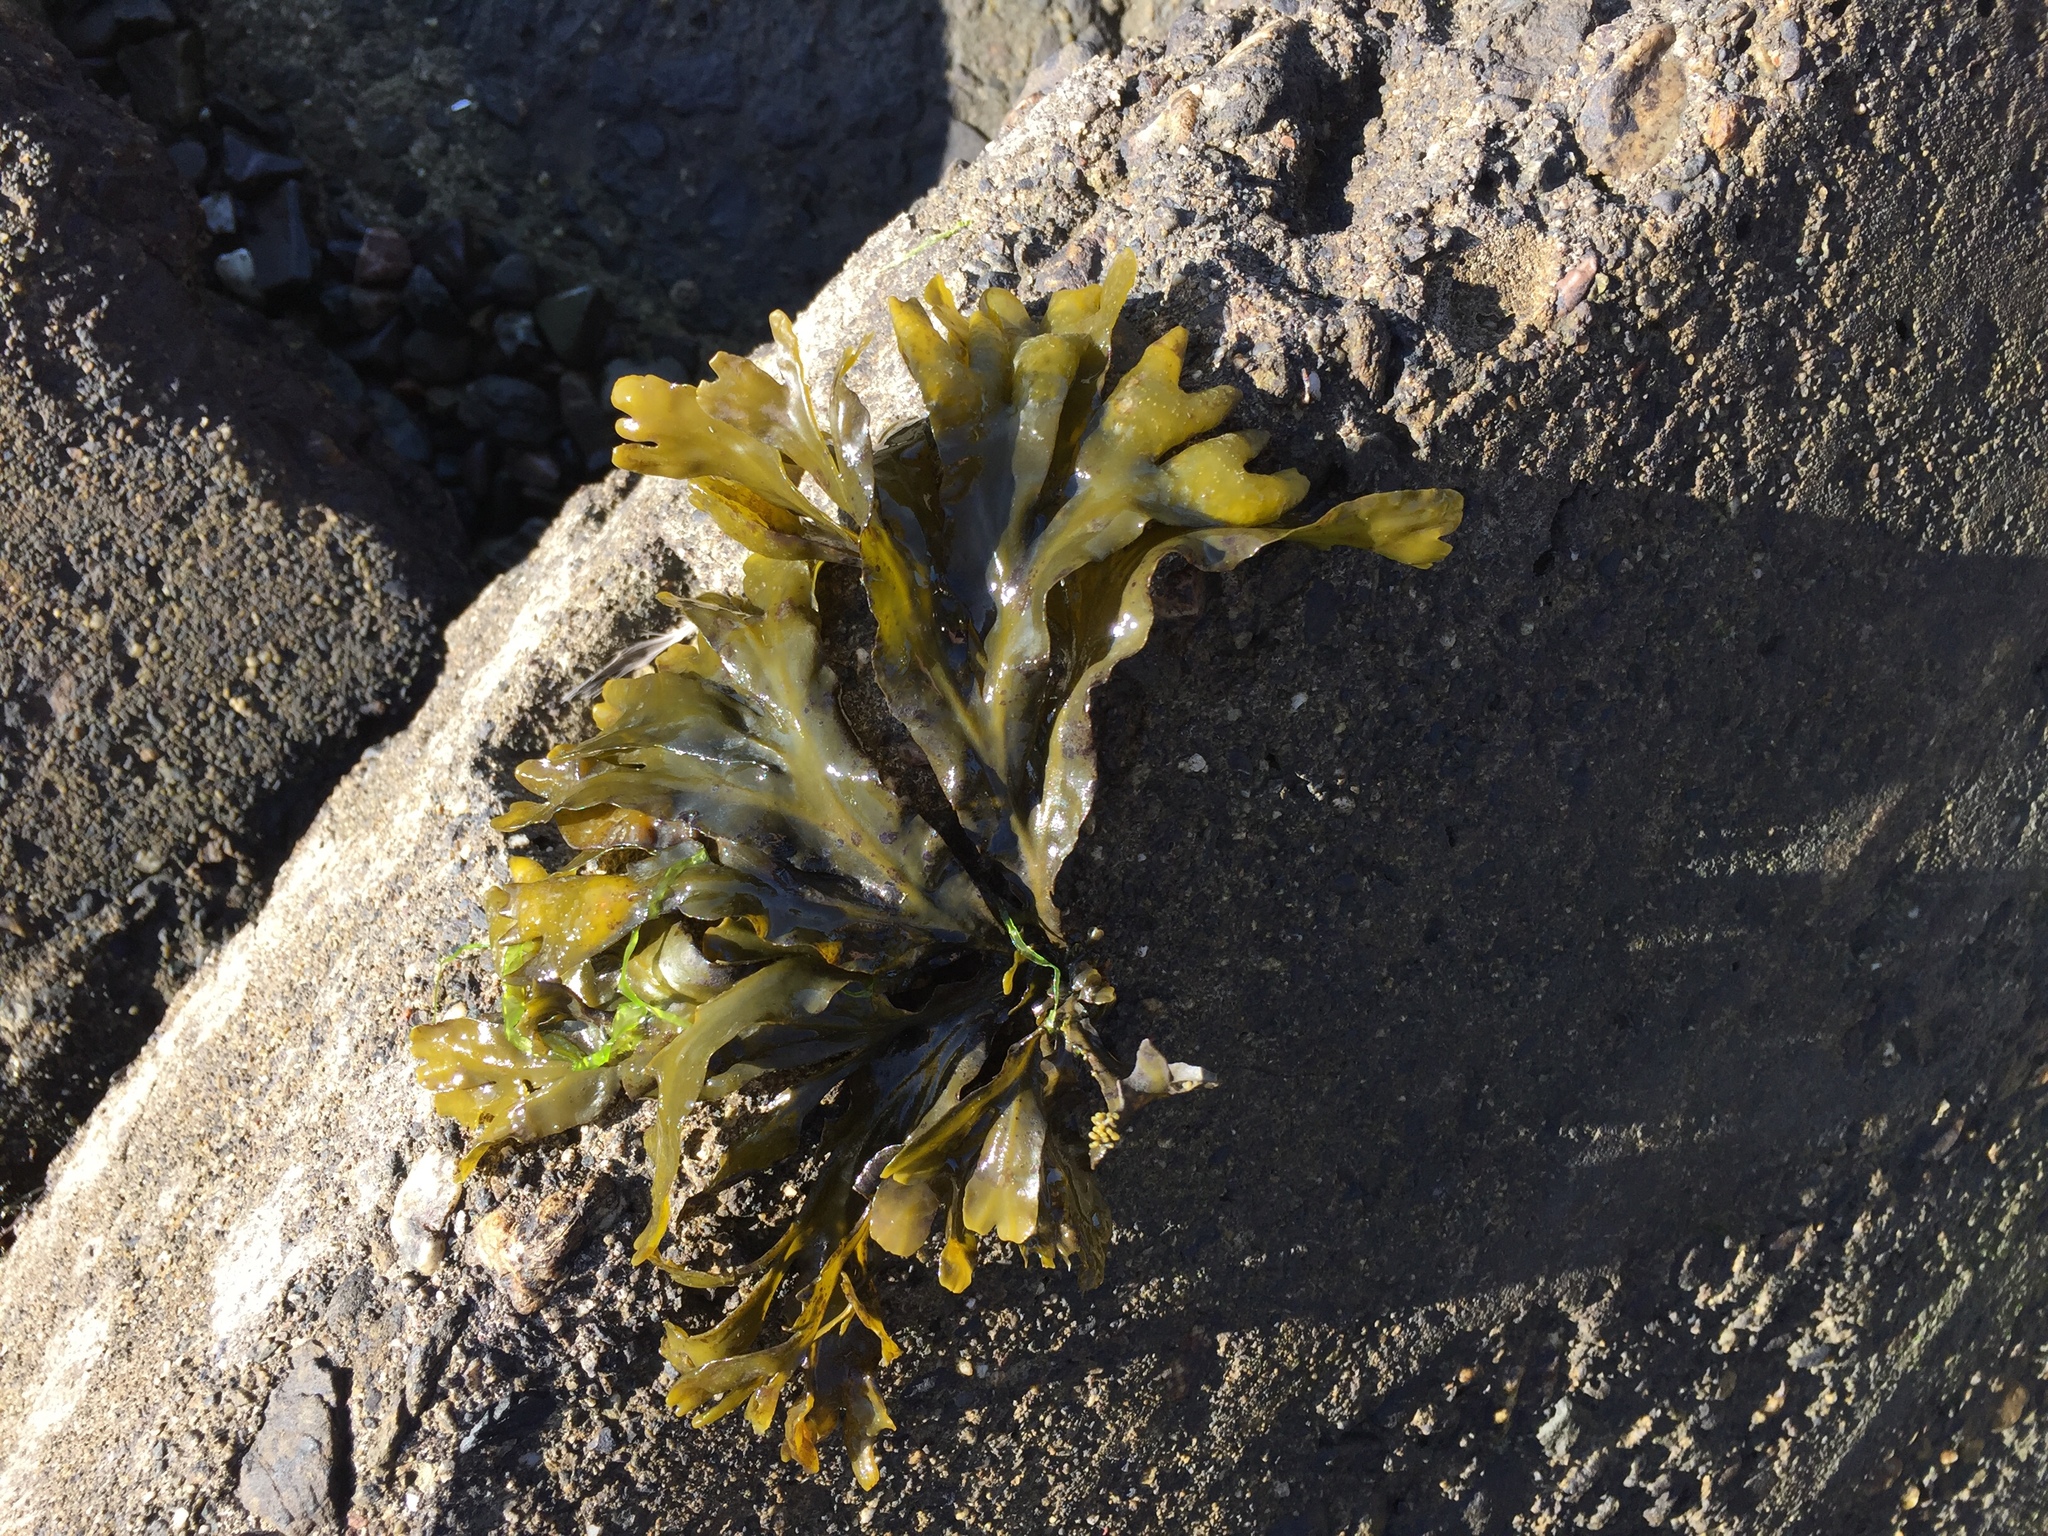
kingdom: Chromista
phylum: Ochrophyta
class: Phaeophyceae
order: Fucales
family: Fucaceae
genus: Fucus
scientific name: Fucus distichus
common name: Rockweed
